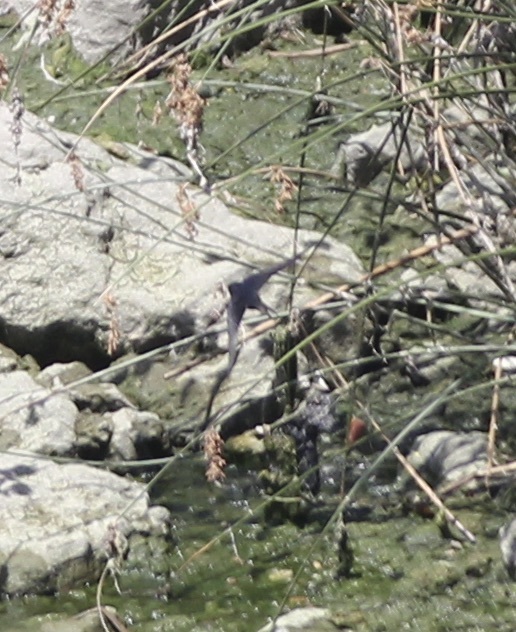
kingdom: Animalia
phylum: Chordata
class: Aves
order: Passeriformes
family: Hirundinidae
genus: Hirundo
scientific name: Hirundo rustica
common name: Barn swallow
